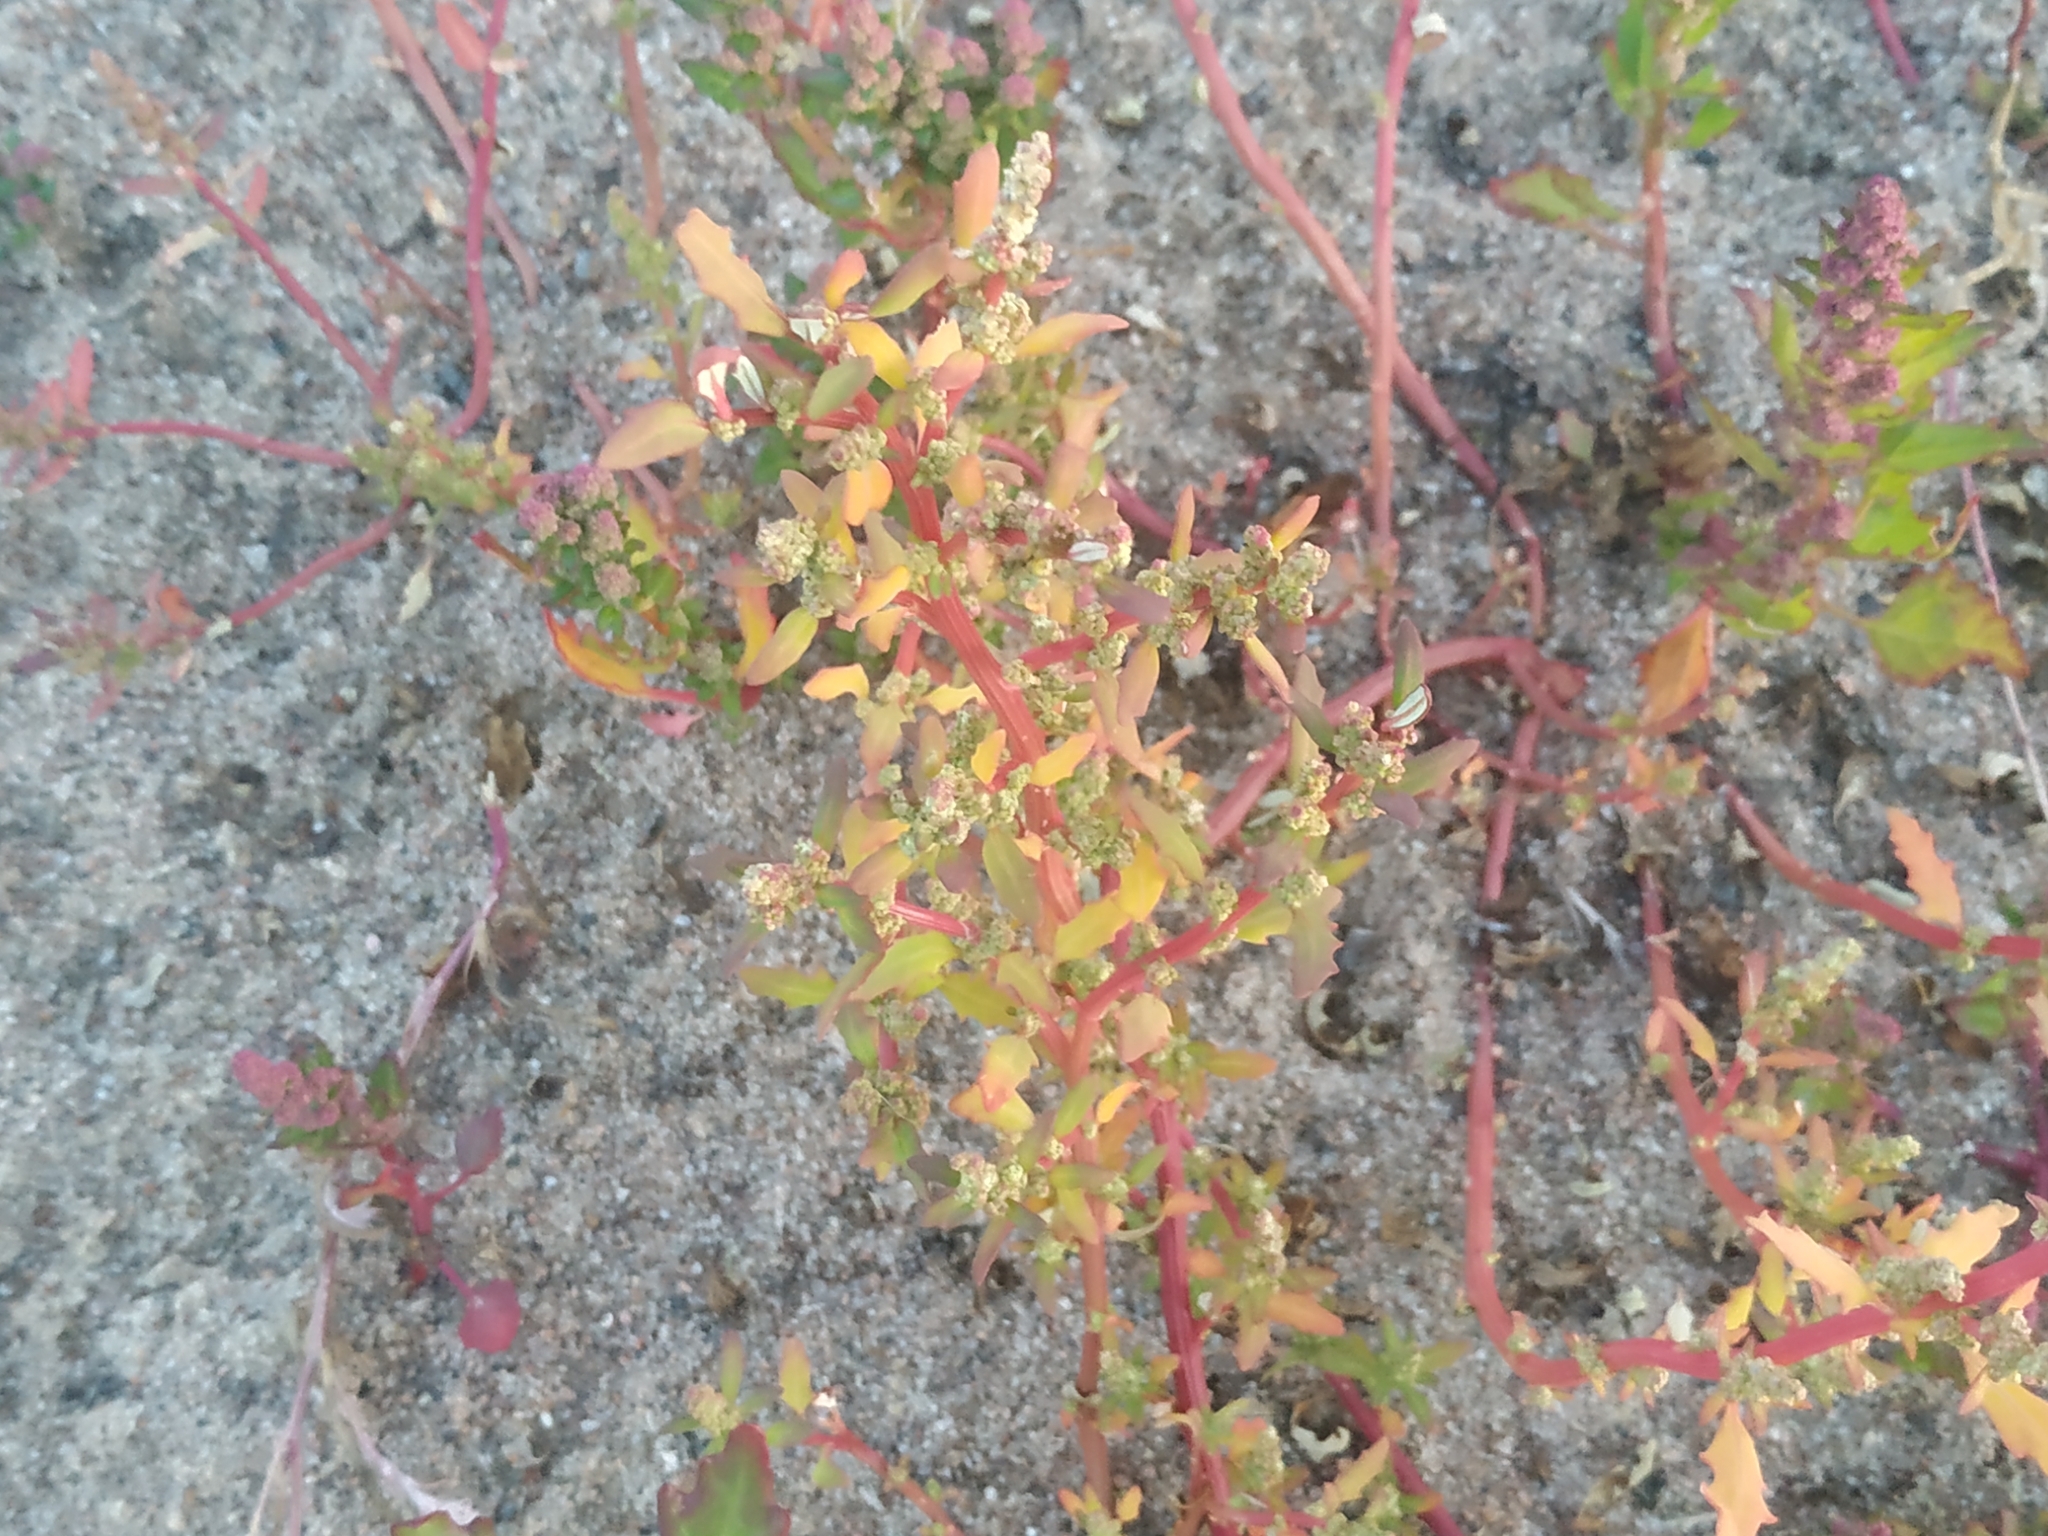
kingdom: Plantae
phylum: Tracheophyta
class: Magnoliopsida
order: Caryophyllales
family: Amaranthaceae
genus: Oxybasis
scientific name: Oxybasis glauca
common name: Glaucous goosefoot
